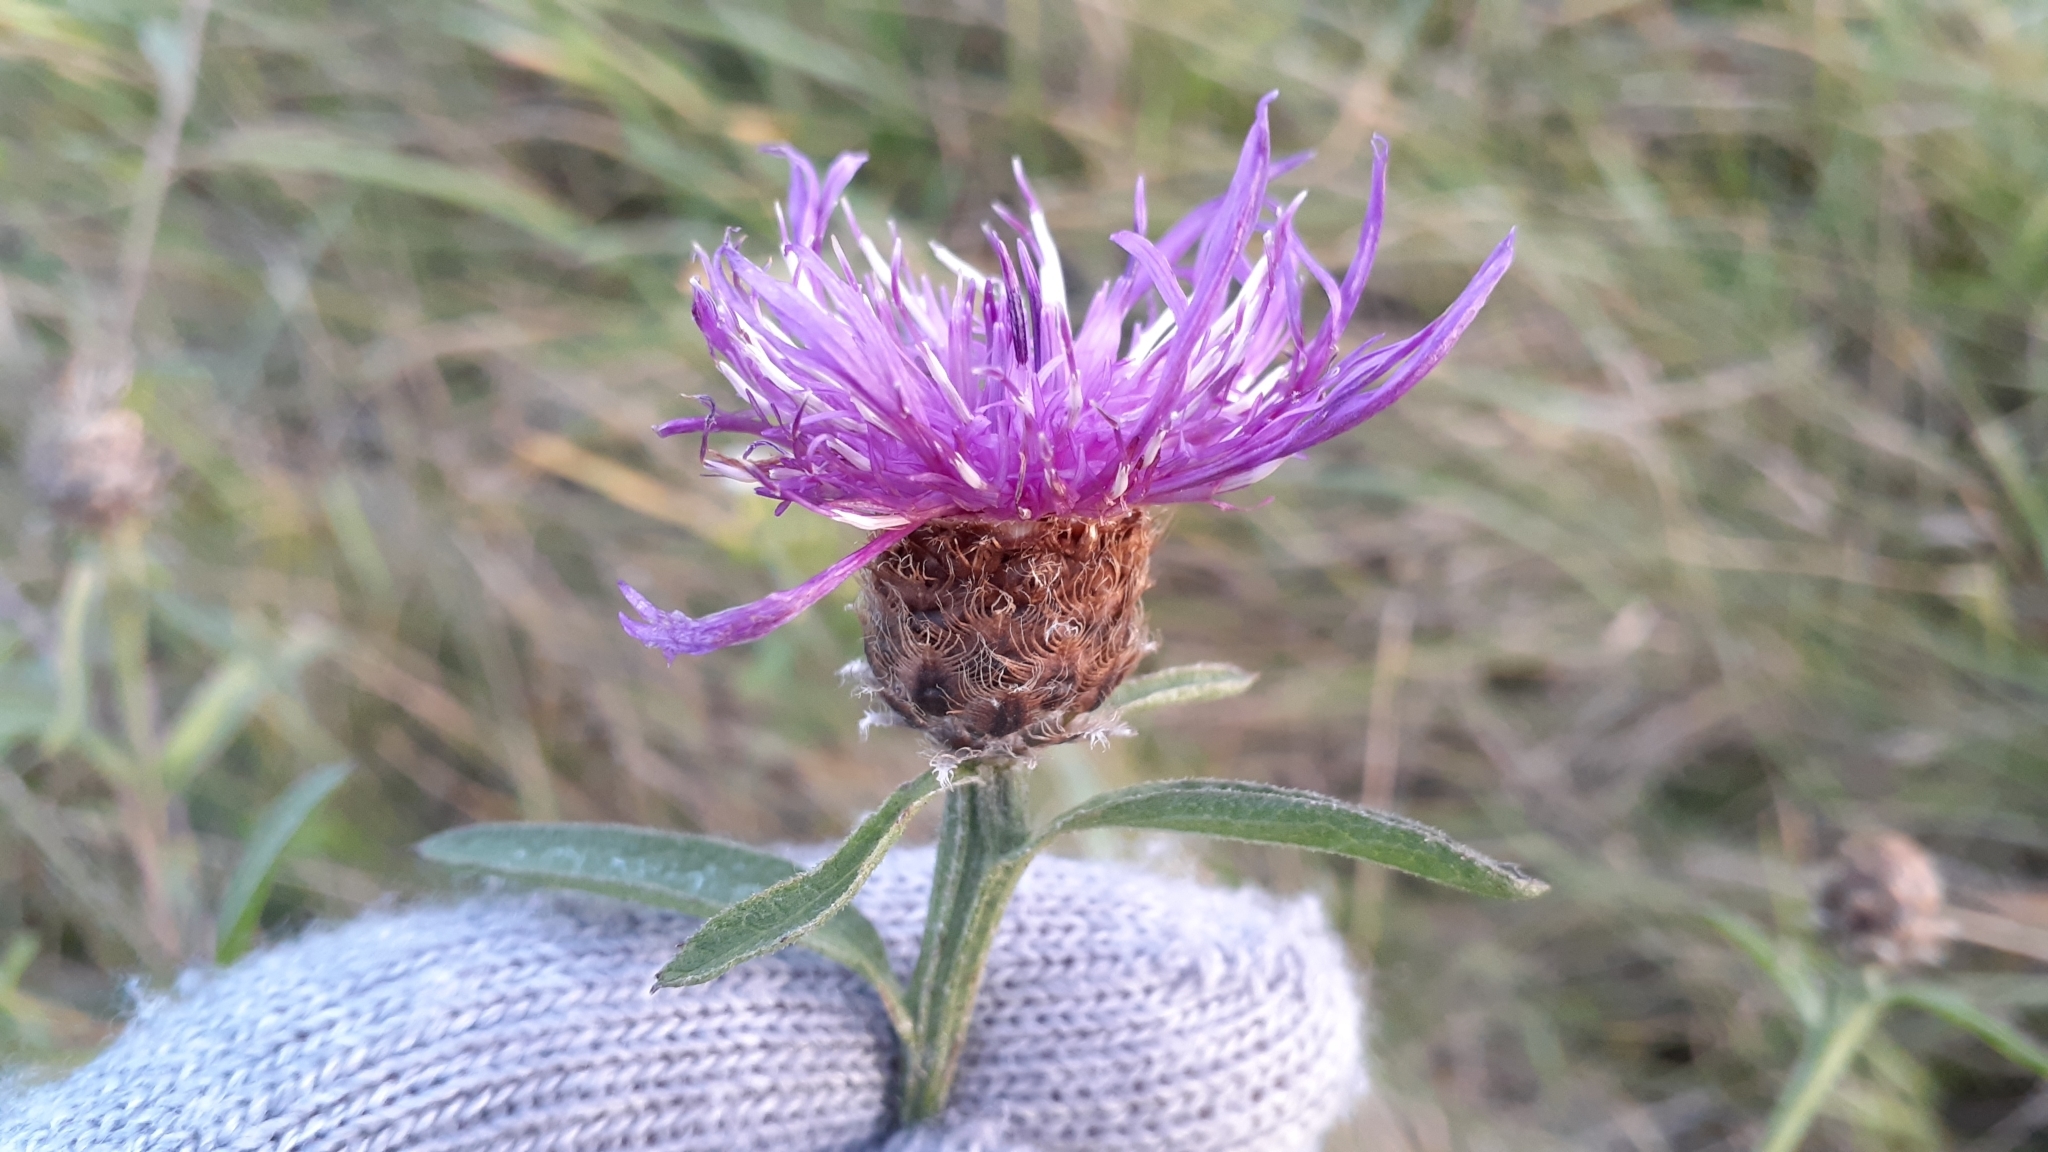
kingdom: Plantae
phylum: Tracheophyta
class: Magnoliopsida
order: Asterales
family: Asteraceae
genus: Centaurea
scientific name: Centaurea moncktonii
